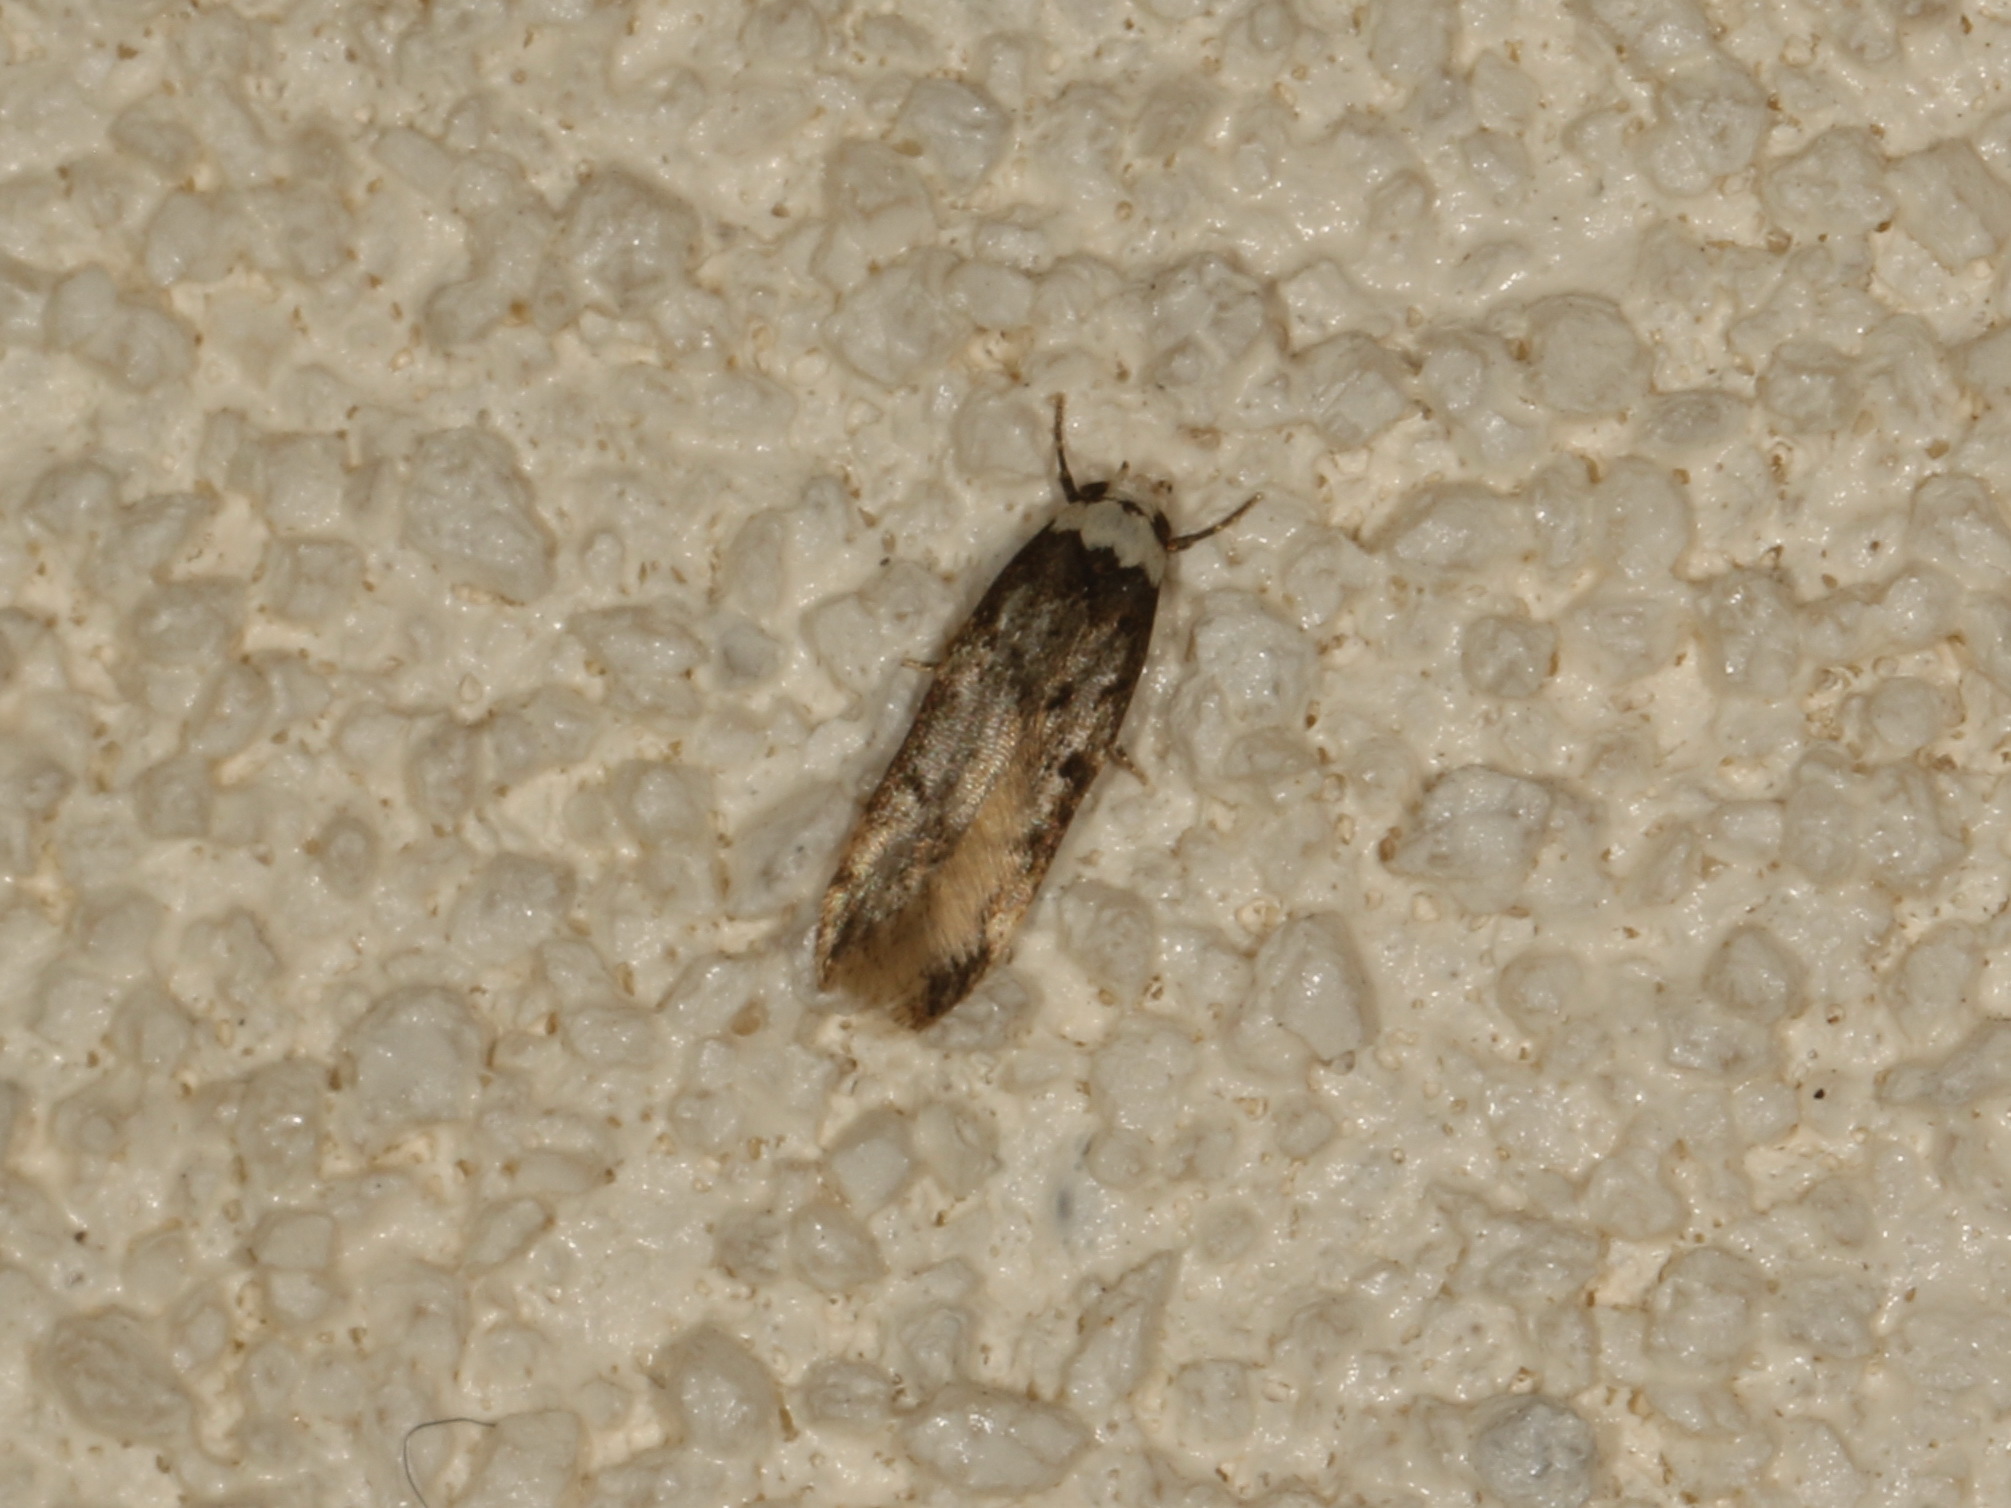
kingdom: Animalia
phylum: Arthropoda
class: Insecta
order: Lepidoptera
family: Oecophoridae
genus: Endrosis
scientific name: Endrosis sarcitrella
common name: White-shouldered house moth
